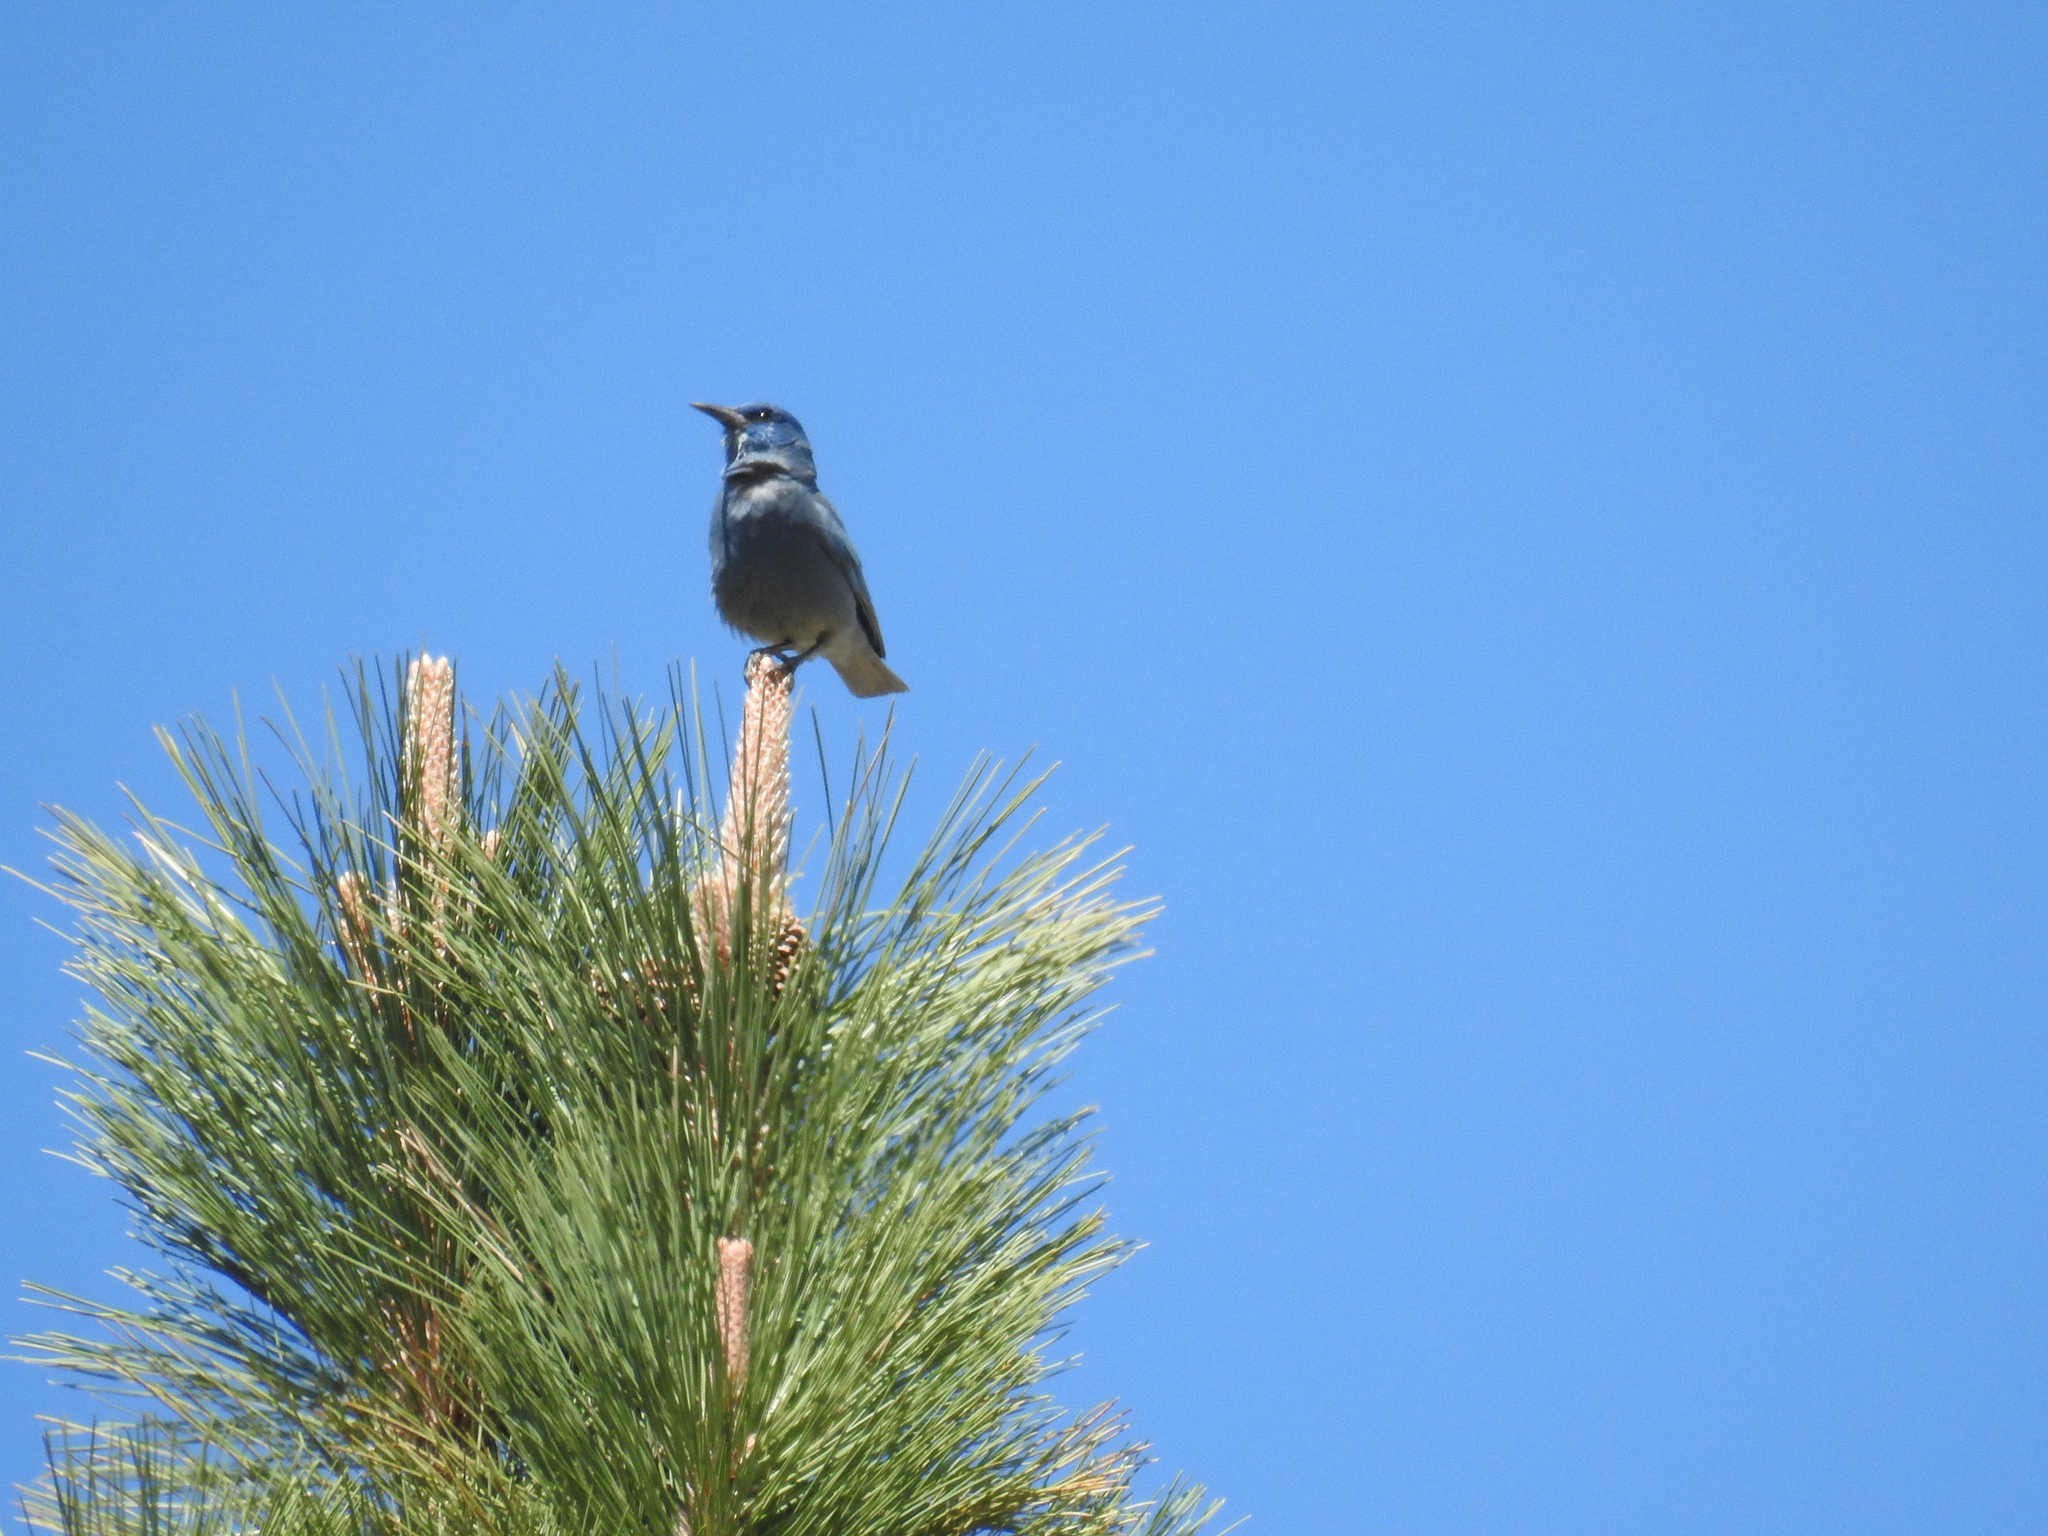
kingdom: Animalia
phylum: Chordata
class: Aves
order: Passeriformes
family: Corvidae
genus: Gymnorhinus
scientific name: Gymnorhinus cyanocephalus
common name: Pinyon jay
